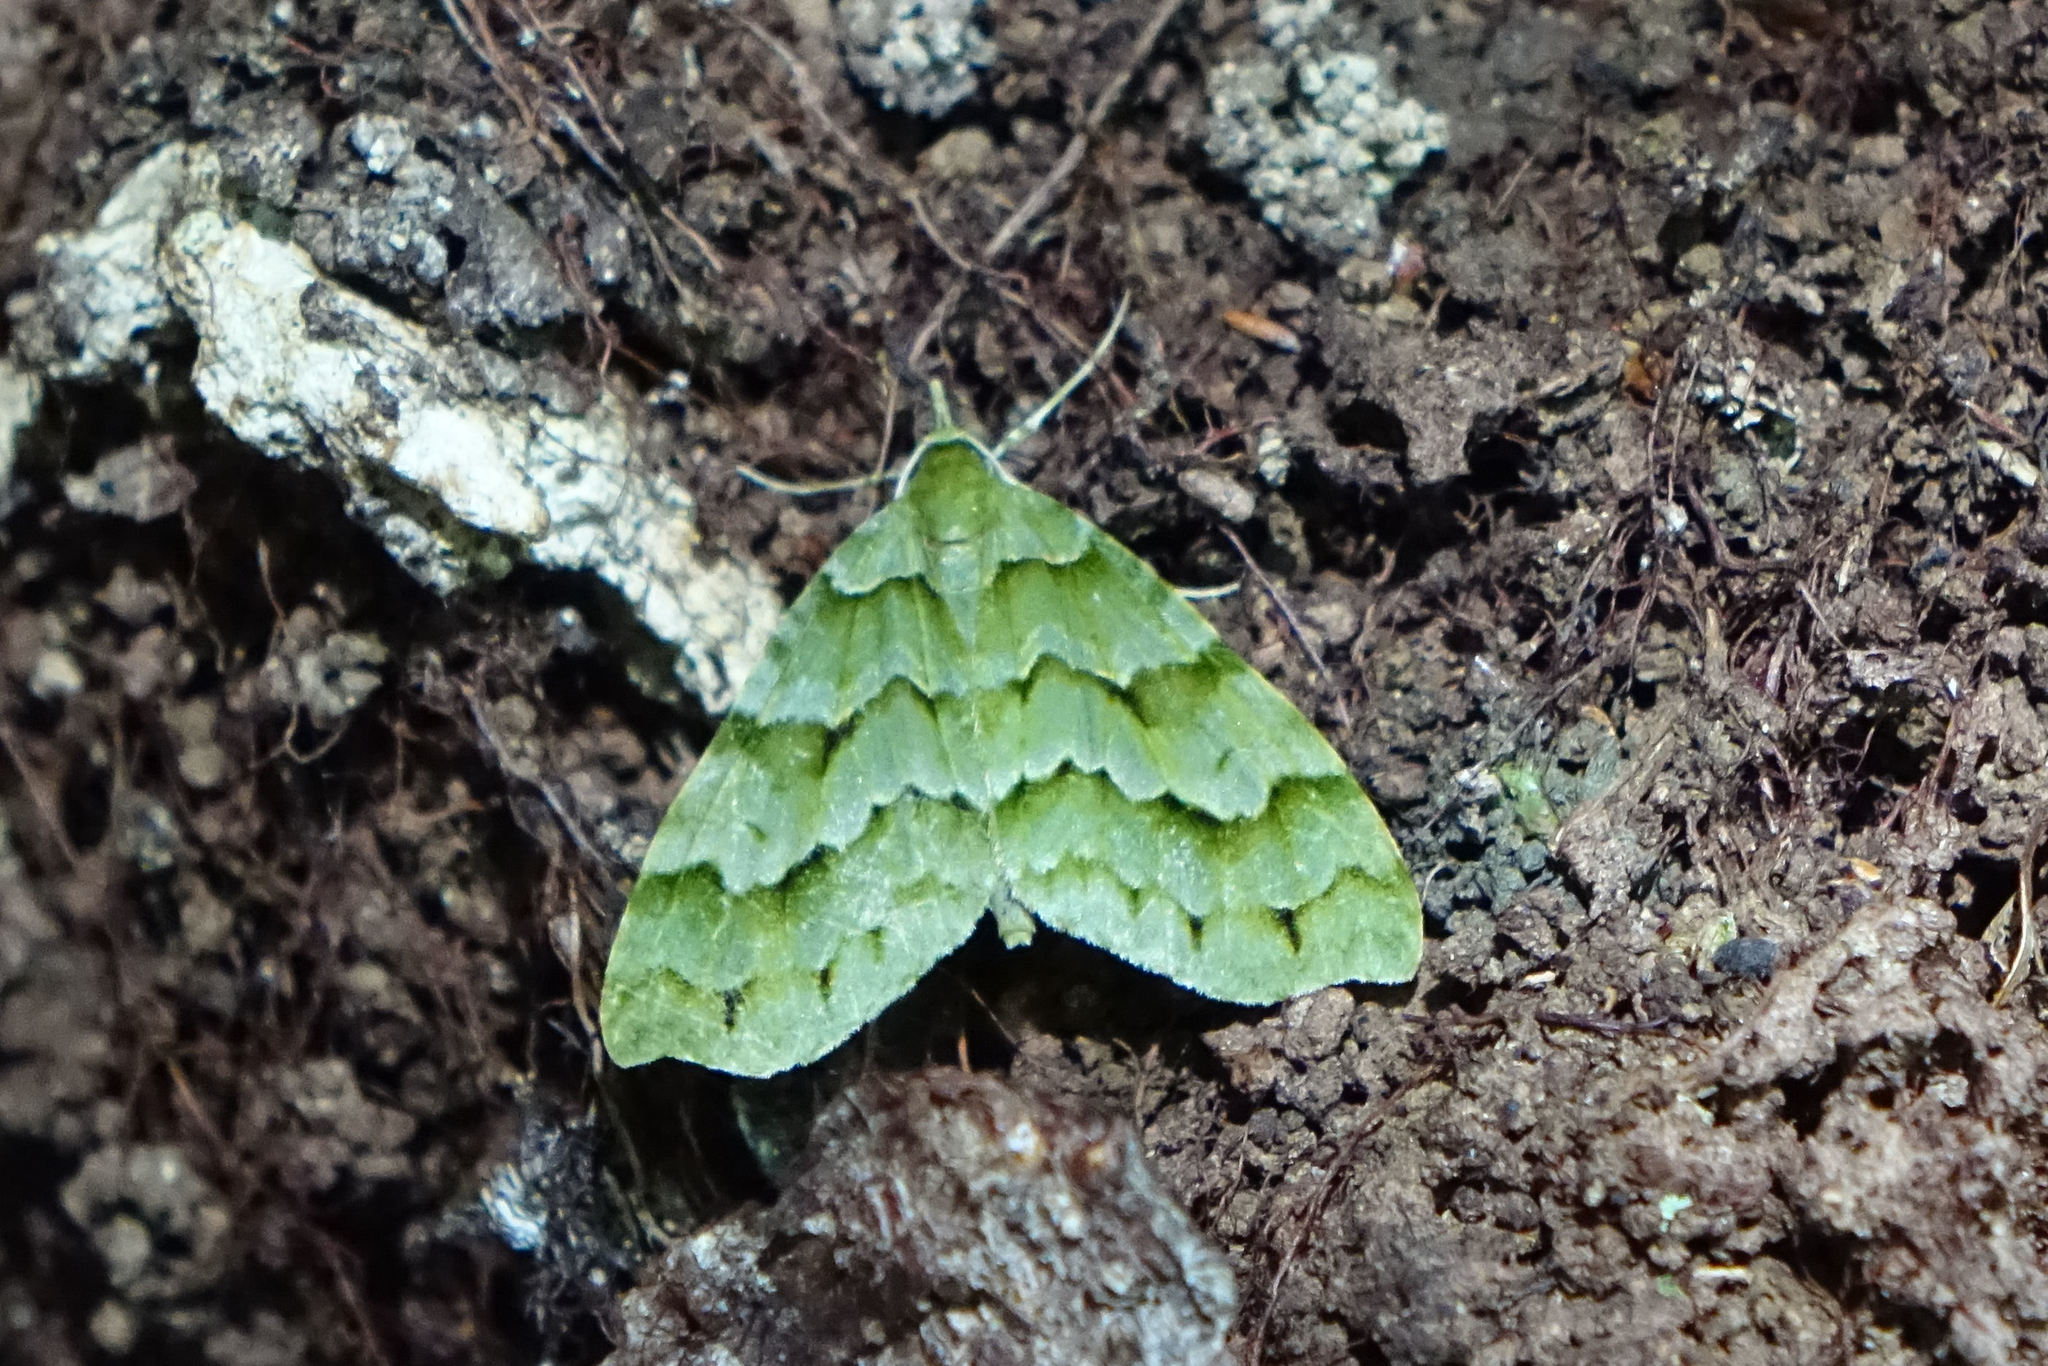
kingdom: Animalia
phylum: Arthropoda
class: Insecta
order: Lepidoptera
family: Geometridae
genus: Tatosoma
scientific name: Tatosoma lestevata
